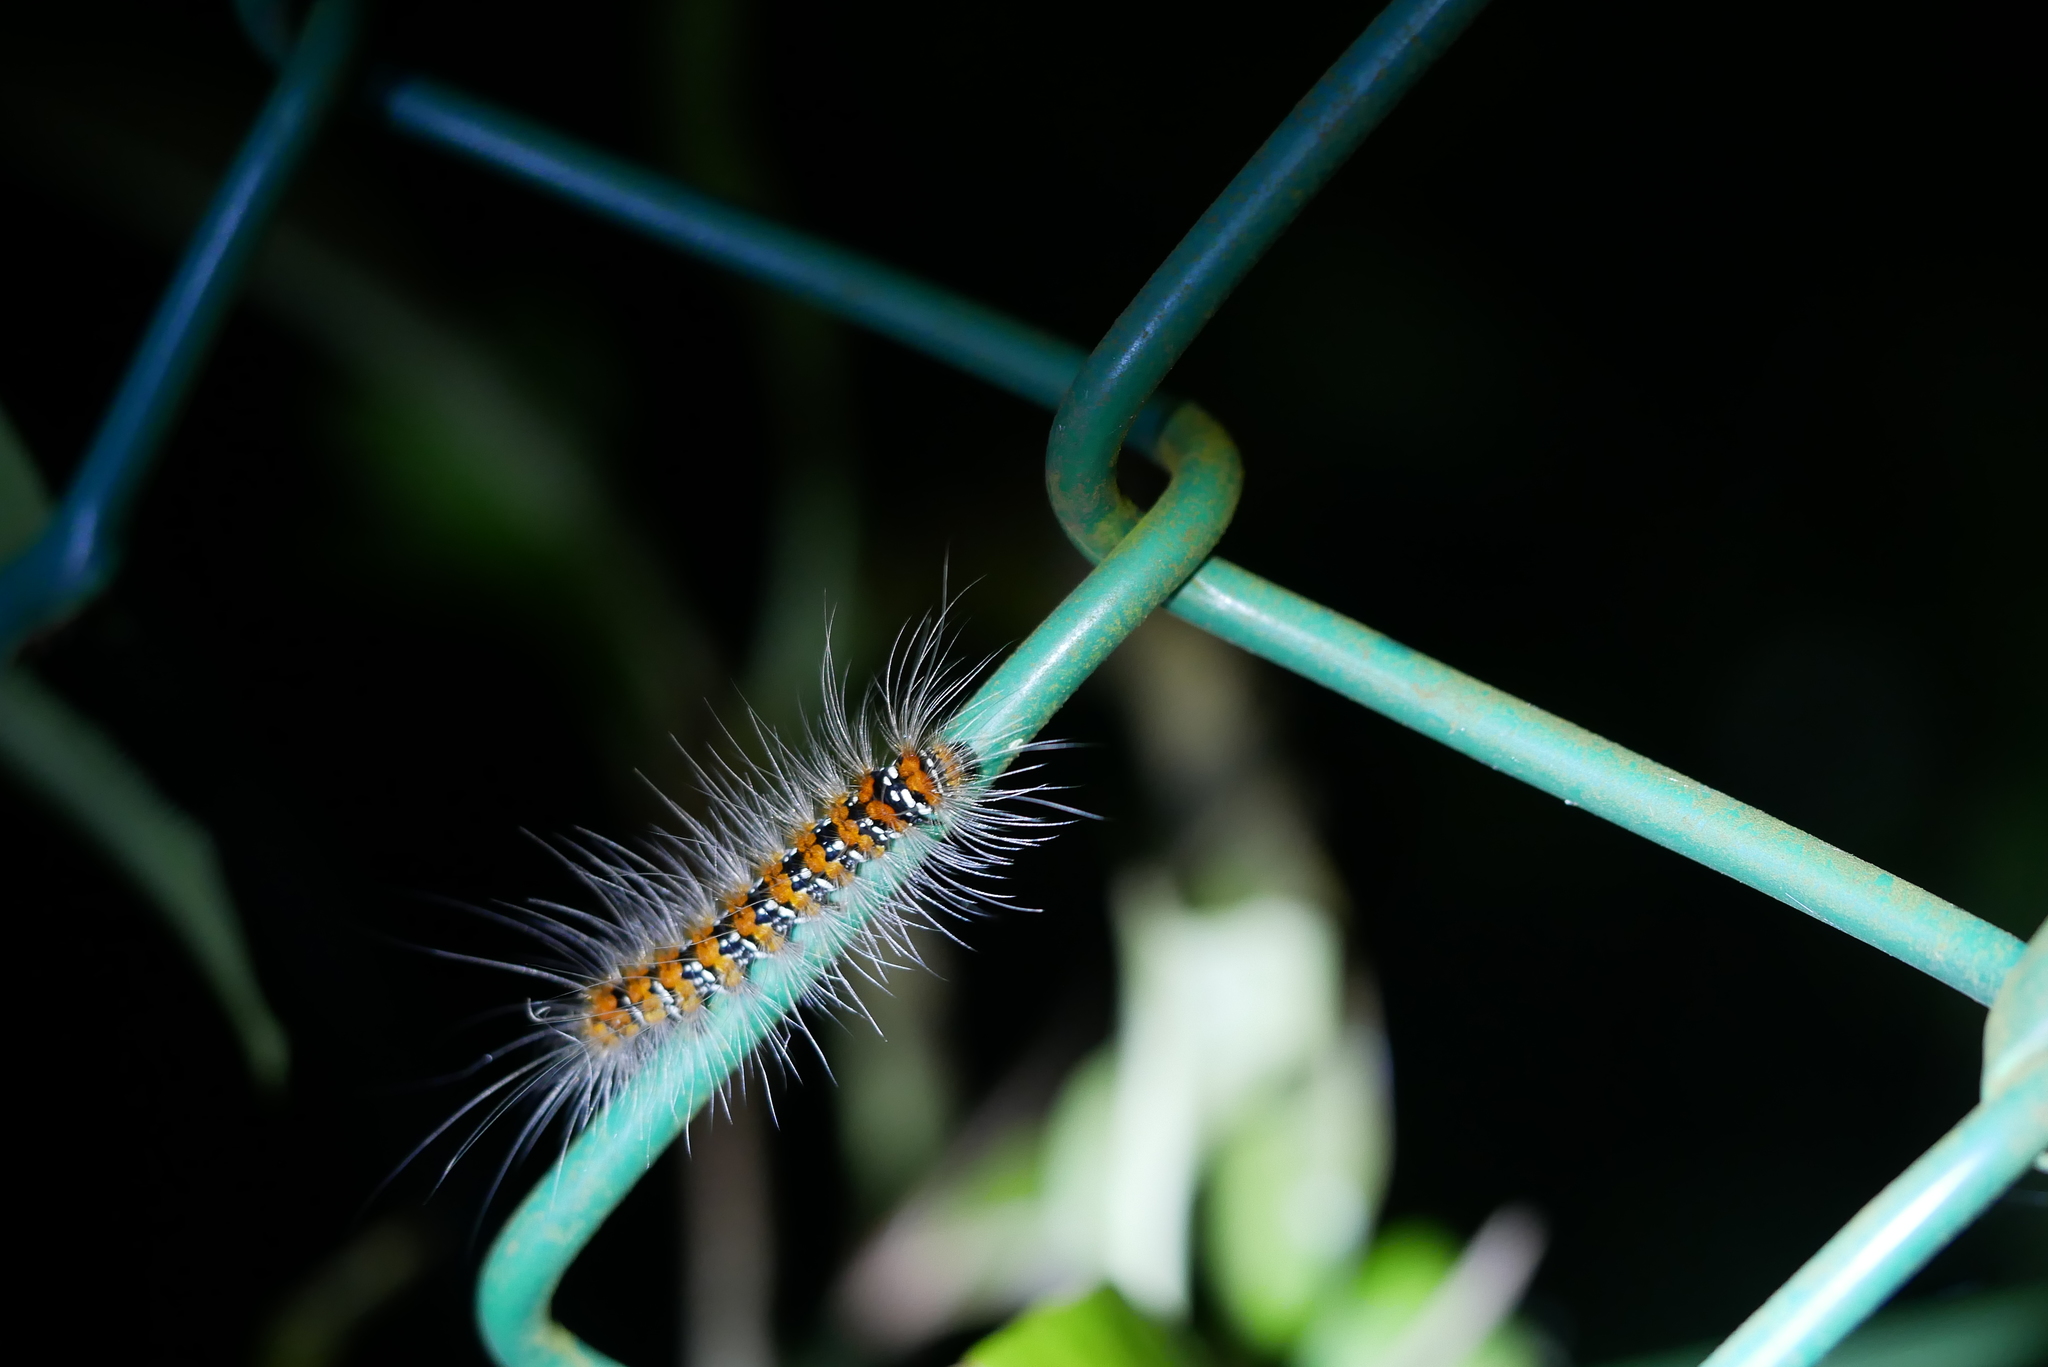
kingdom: Animalia
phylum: Arthropoda
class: Insecta
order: Lepidoptera
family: Erebidae
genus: Manulea
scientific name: Manulea hokopo
